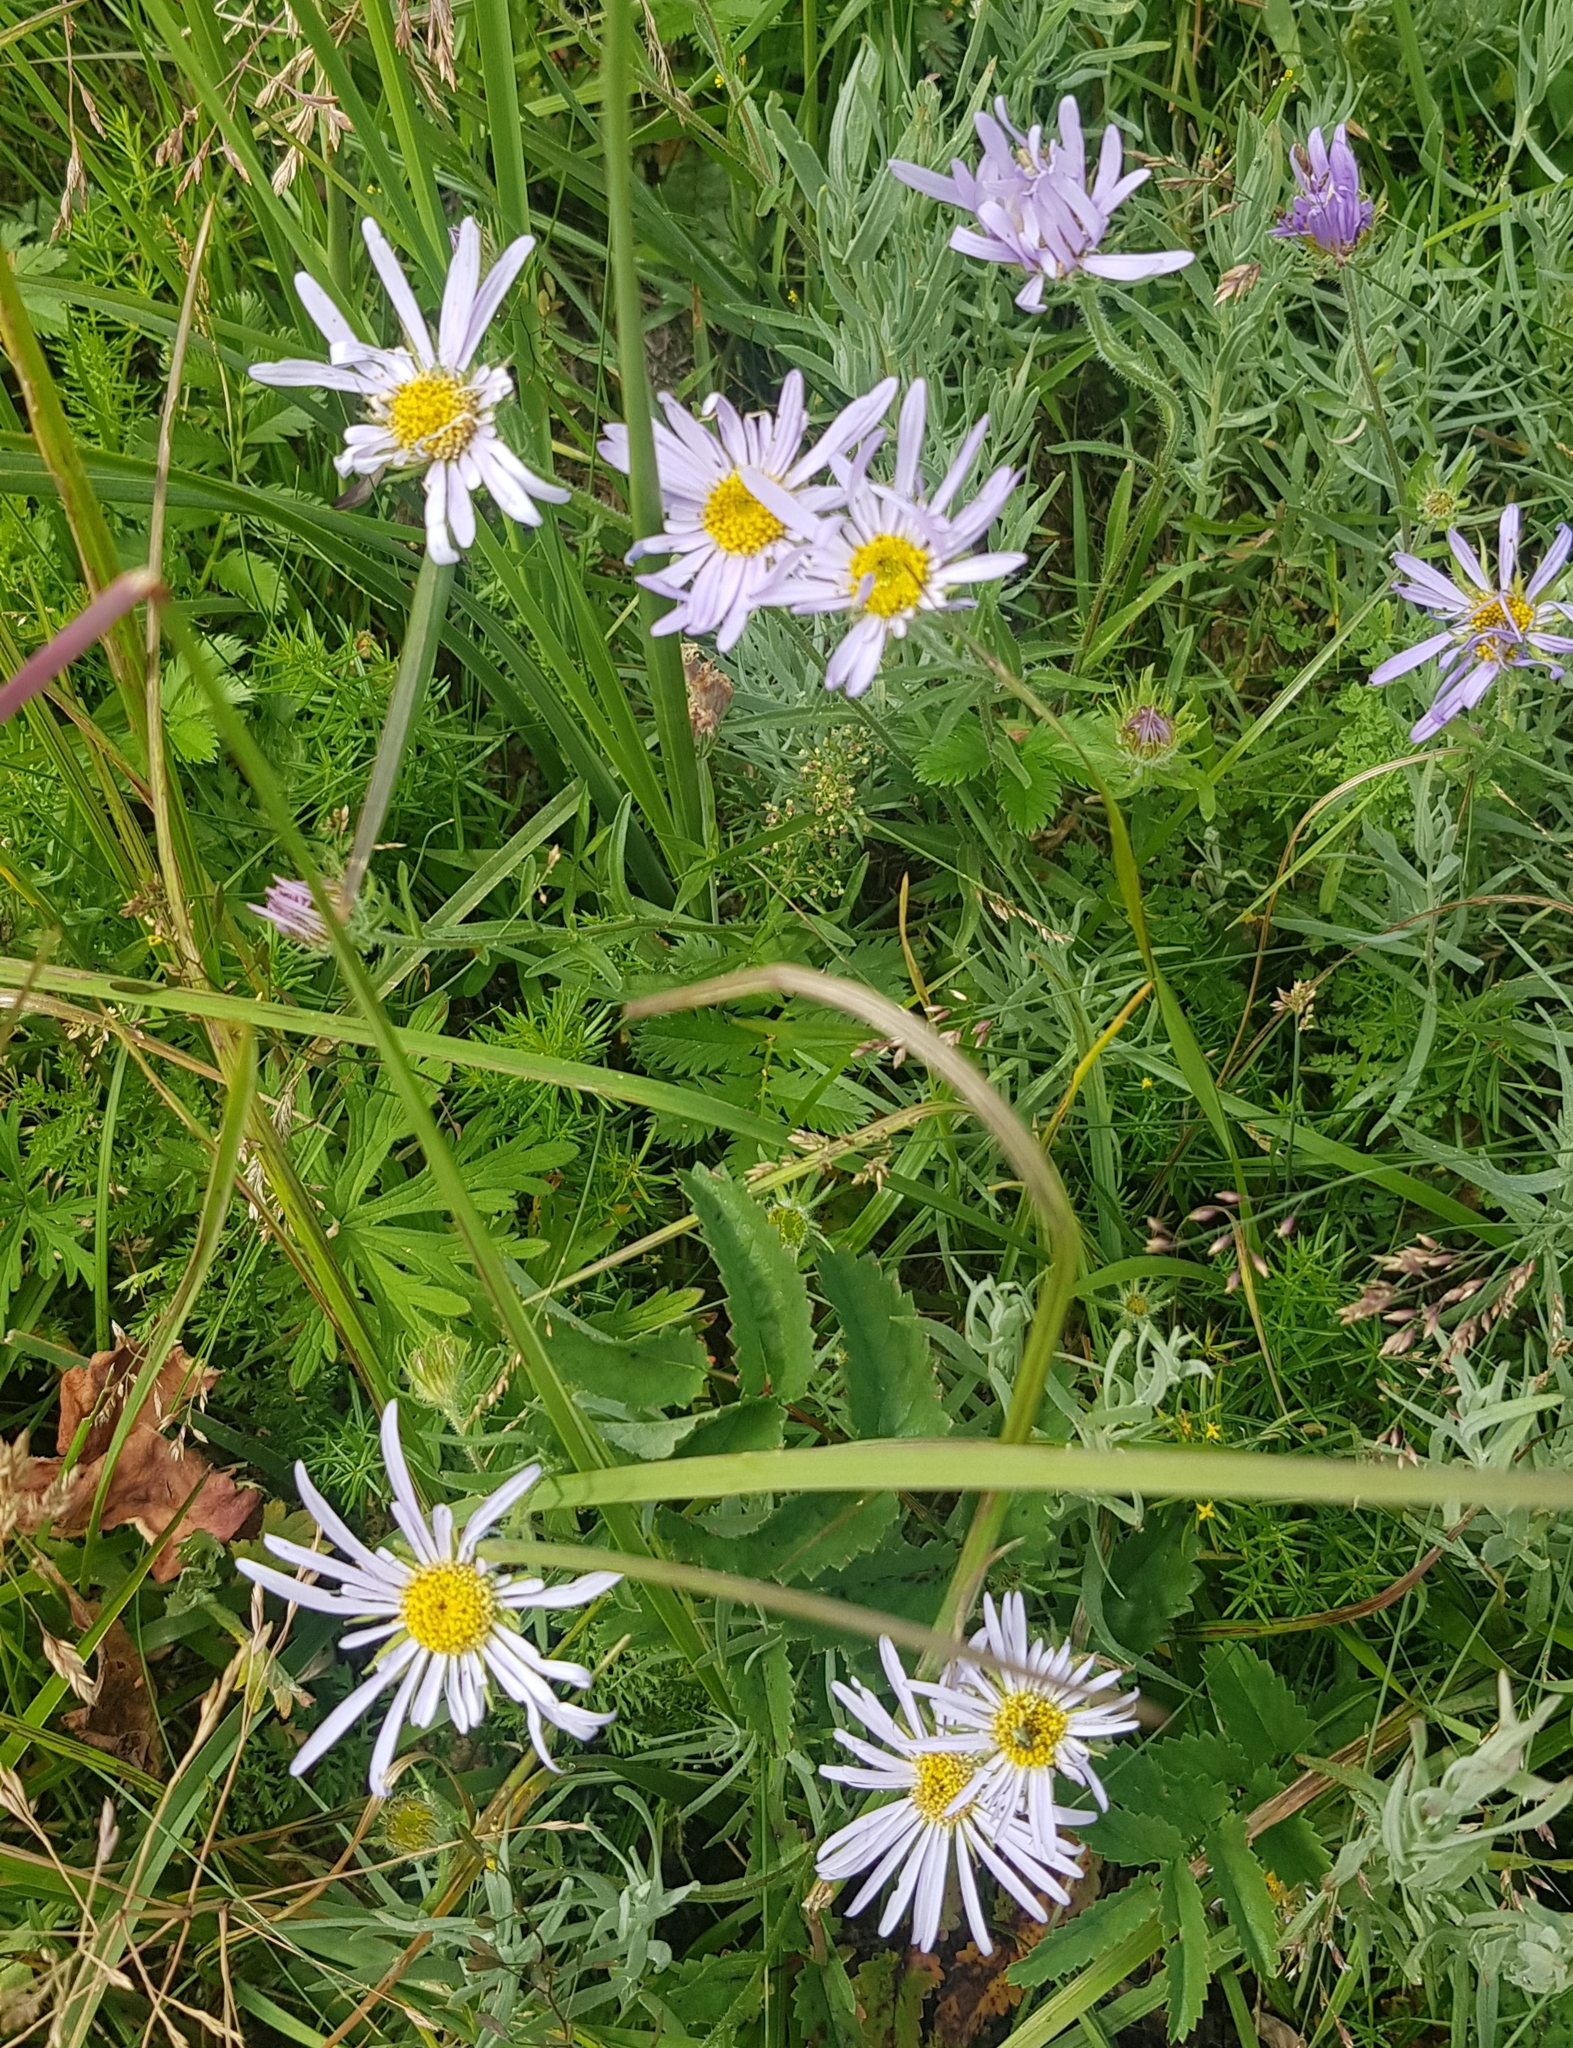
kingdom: Plantae
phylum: Tracheophyta
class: Magnoliopsida
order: Asterales
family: Asteraceae
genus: Aster
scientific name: Aster alpinus
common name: Alpine aster
